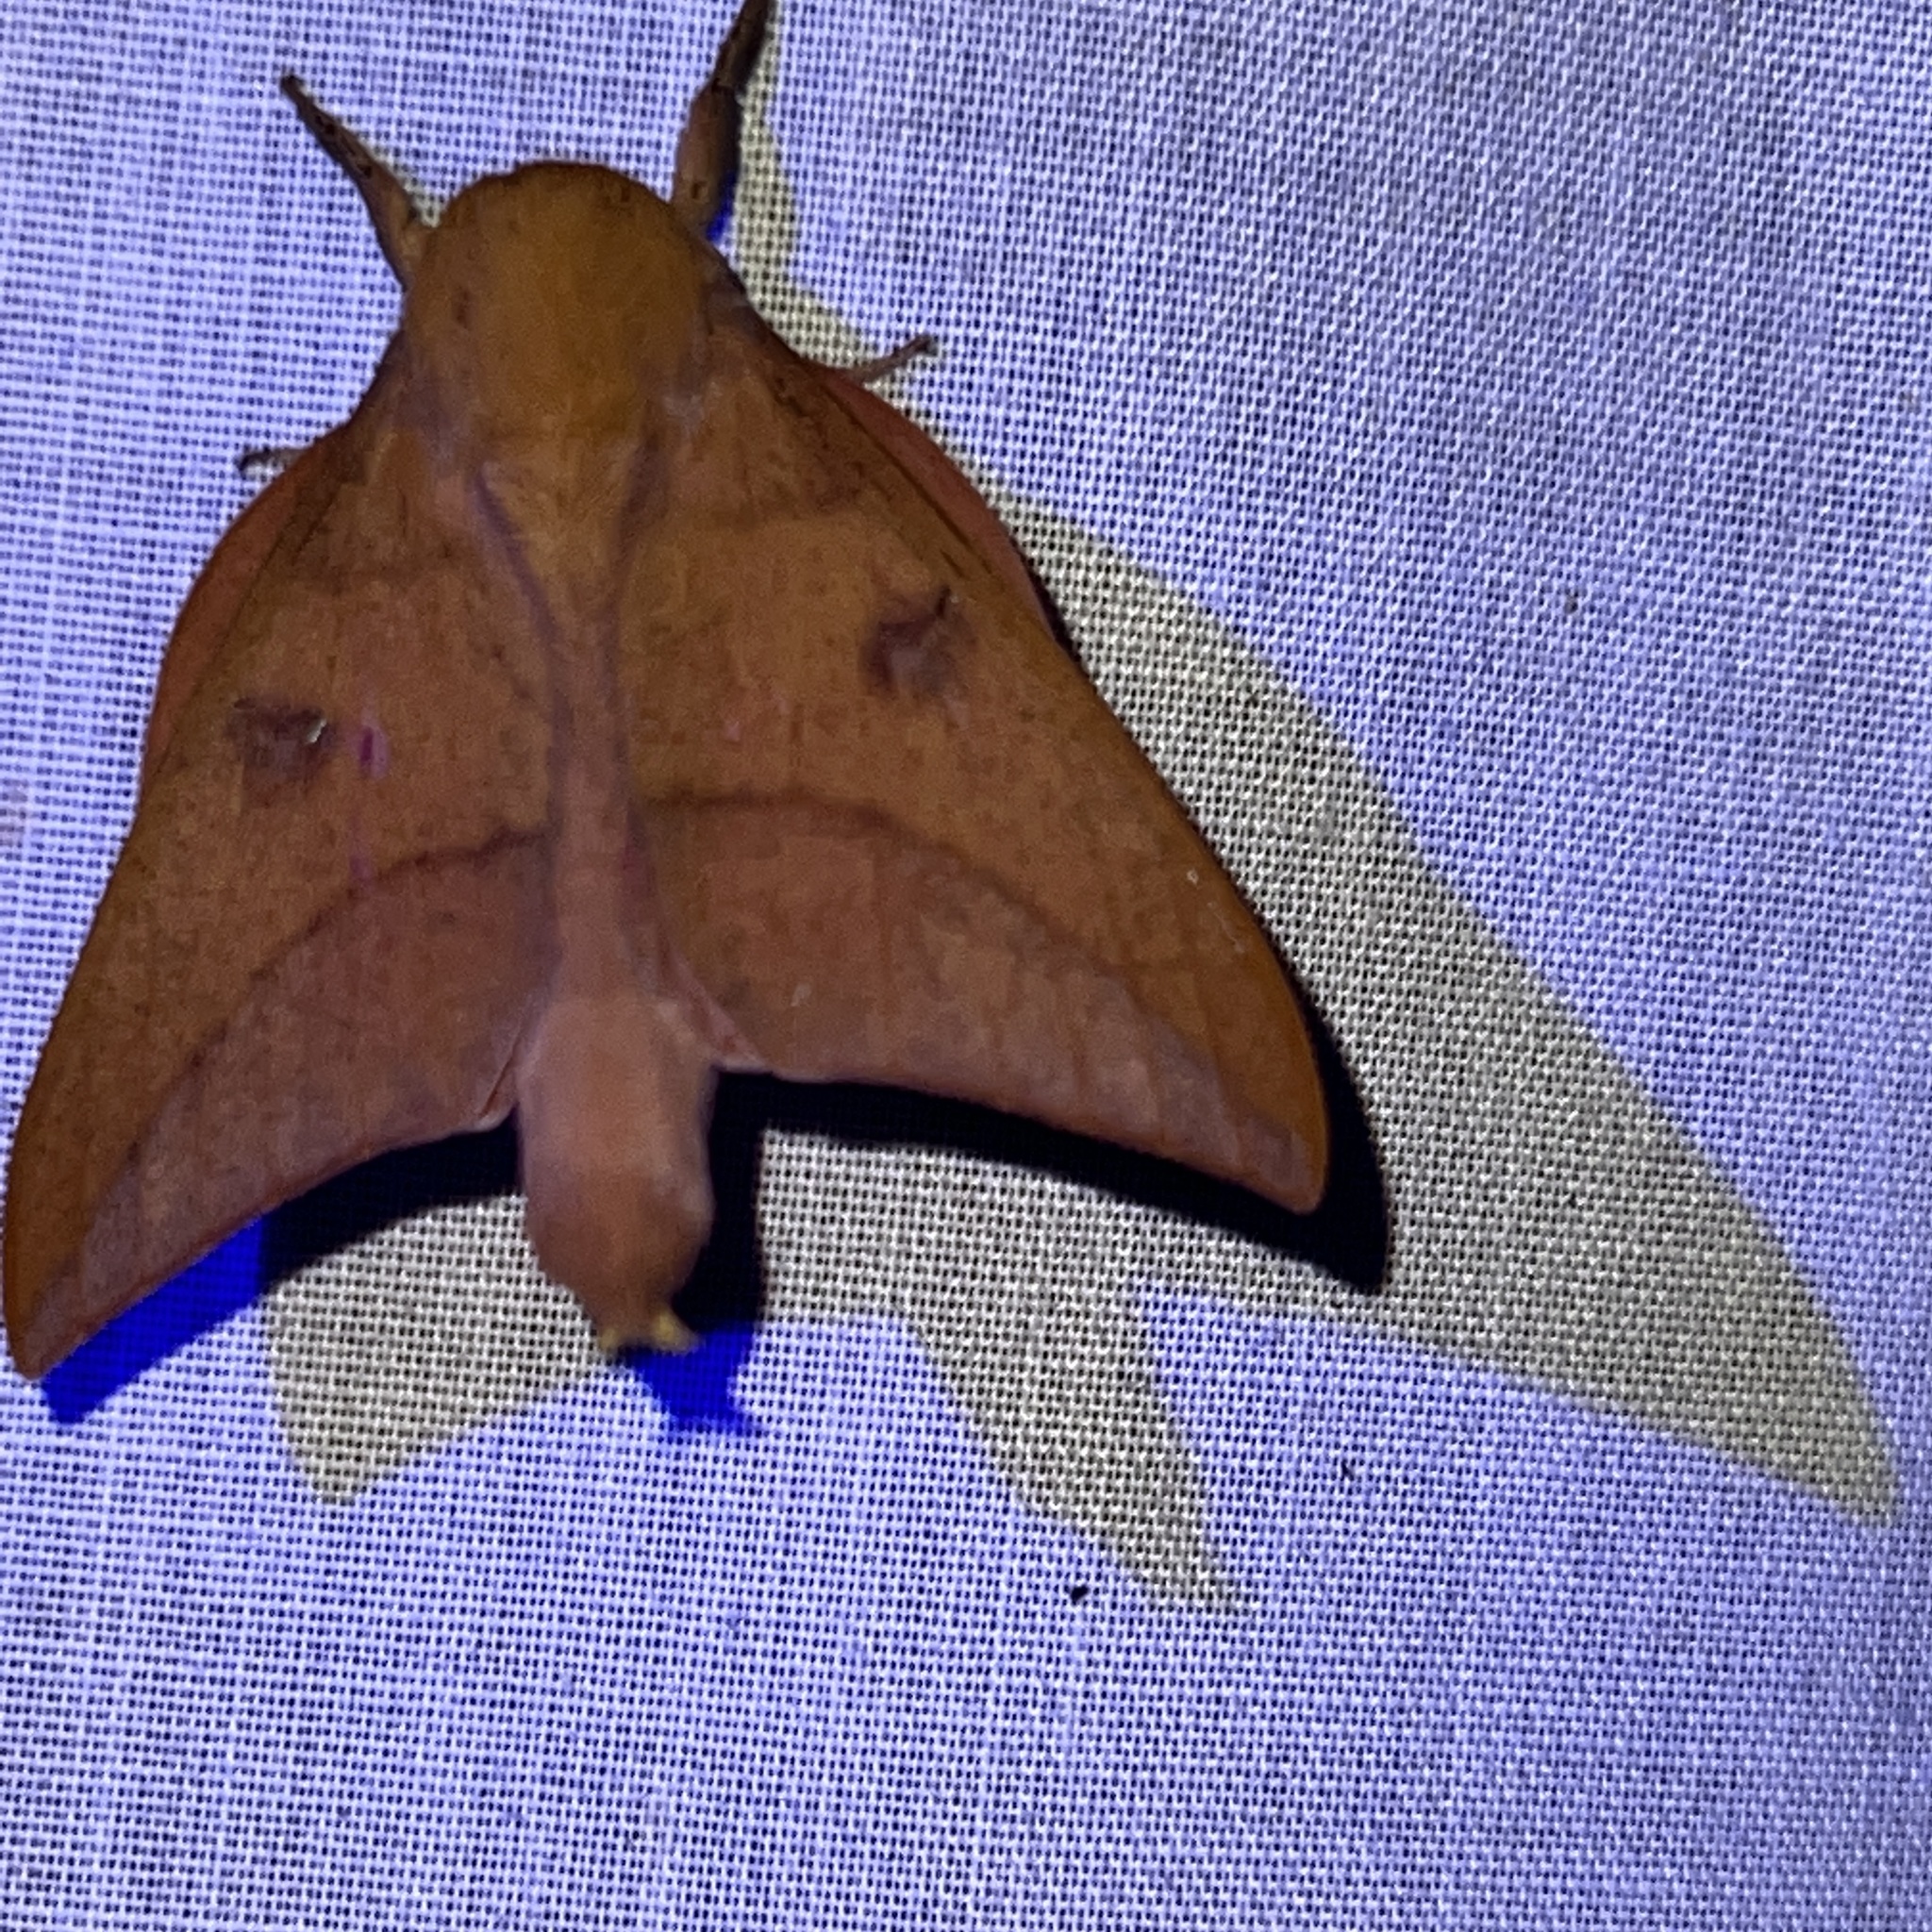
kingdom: Animalia
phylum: Arthropoda
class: Insecta
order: Lepidoptera
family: Saturniidae
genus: Adeloneivaia
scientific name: Adeloneivaia subangulata
